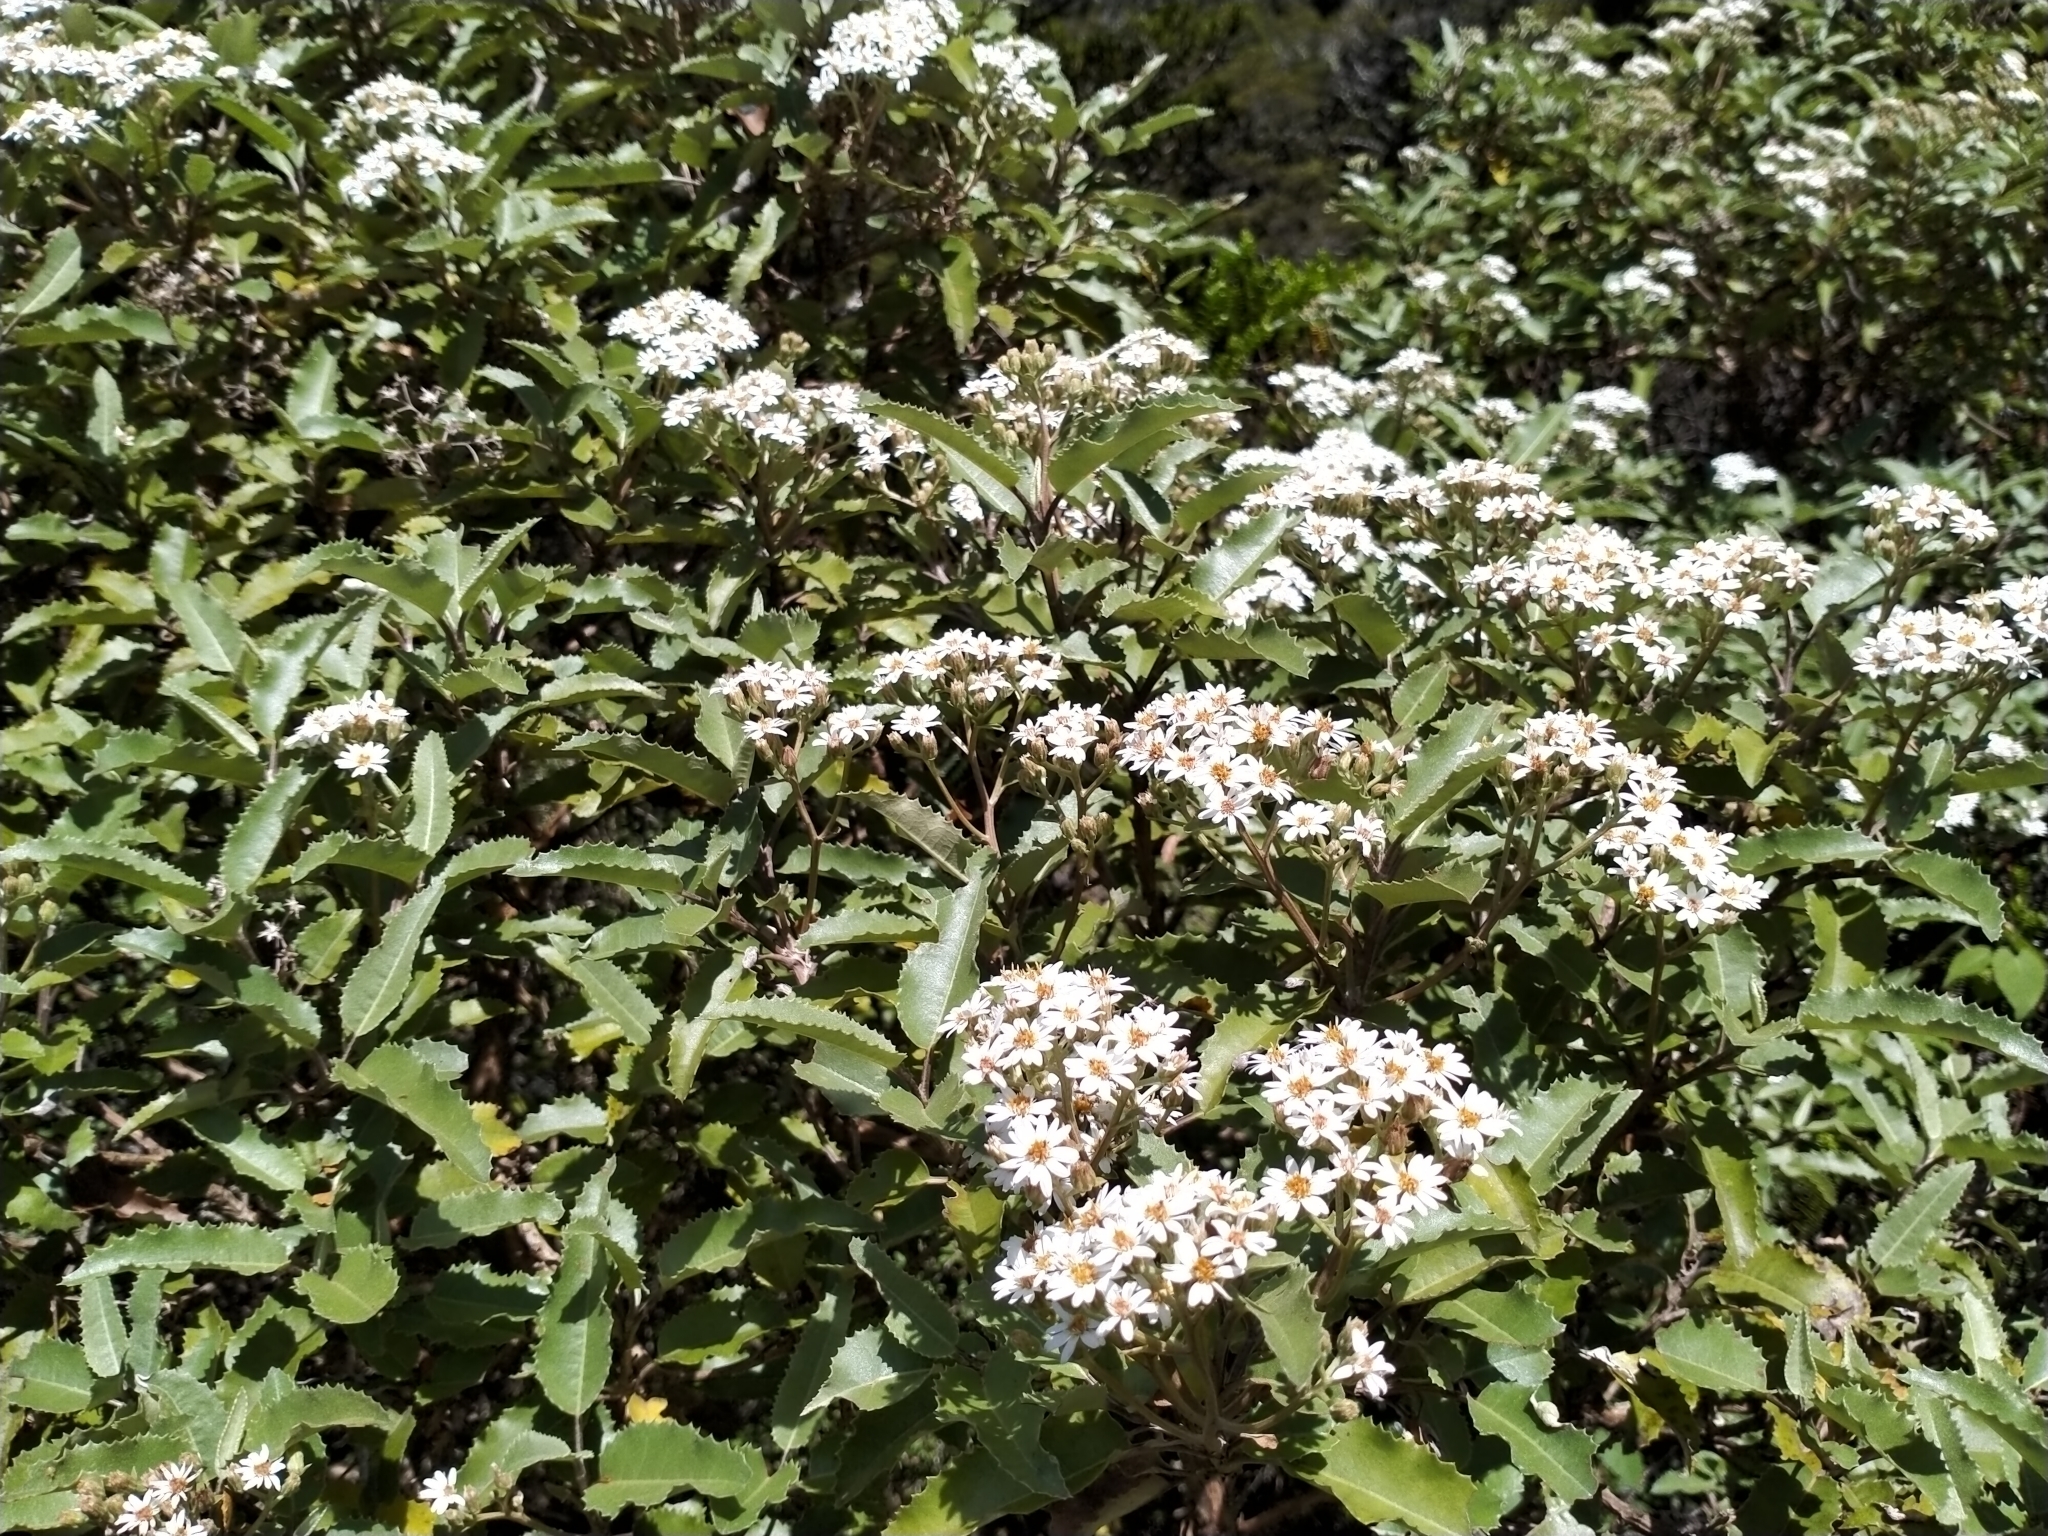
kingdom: Plantae
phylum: Tracheophyta
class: Magnoliopsida
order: Asterales
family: Asteraceae
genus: Olearia
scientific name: Olearia ilicifolia
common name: Maori-holly
